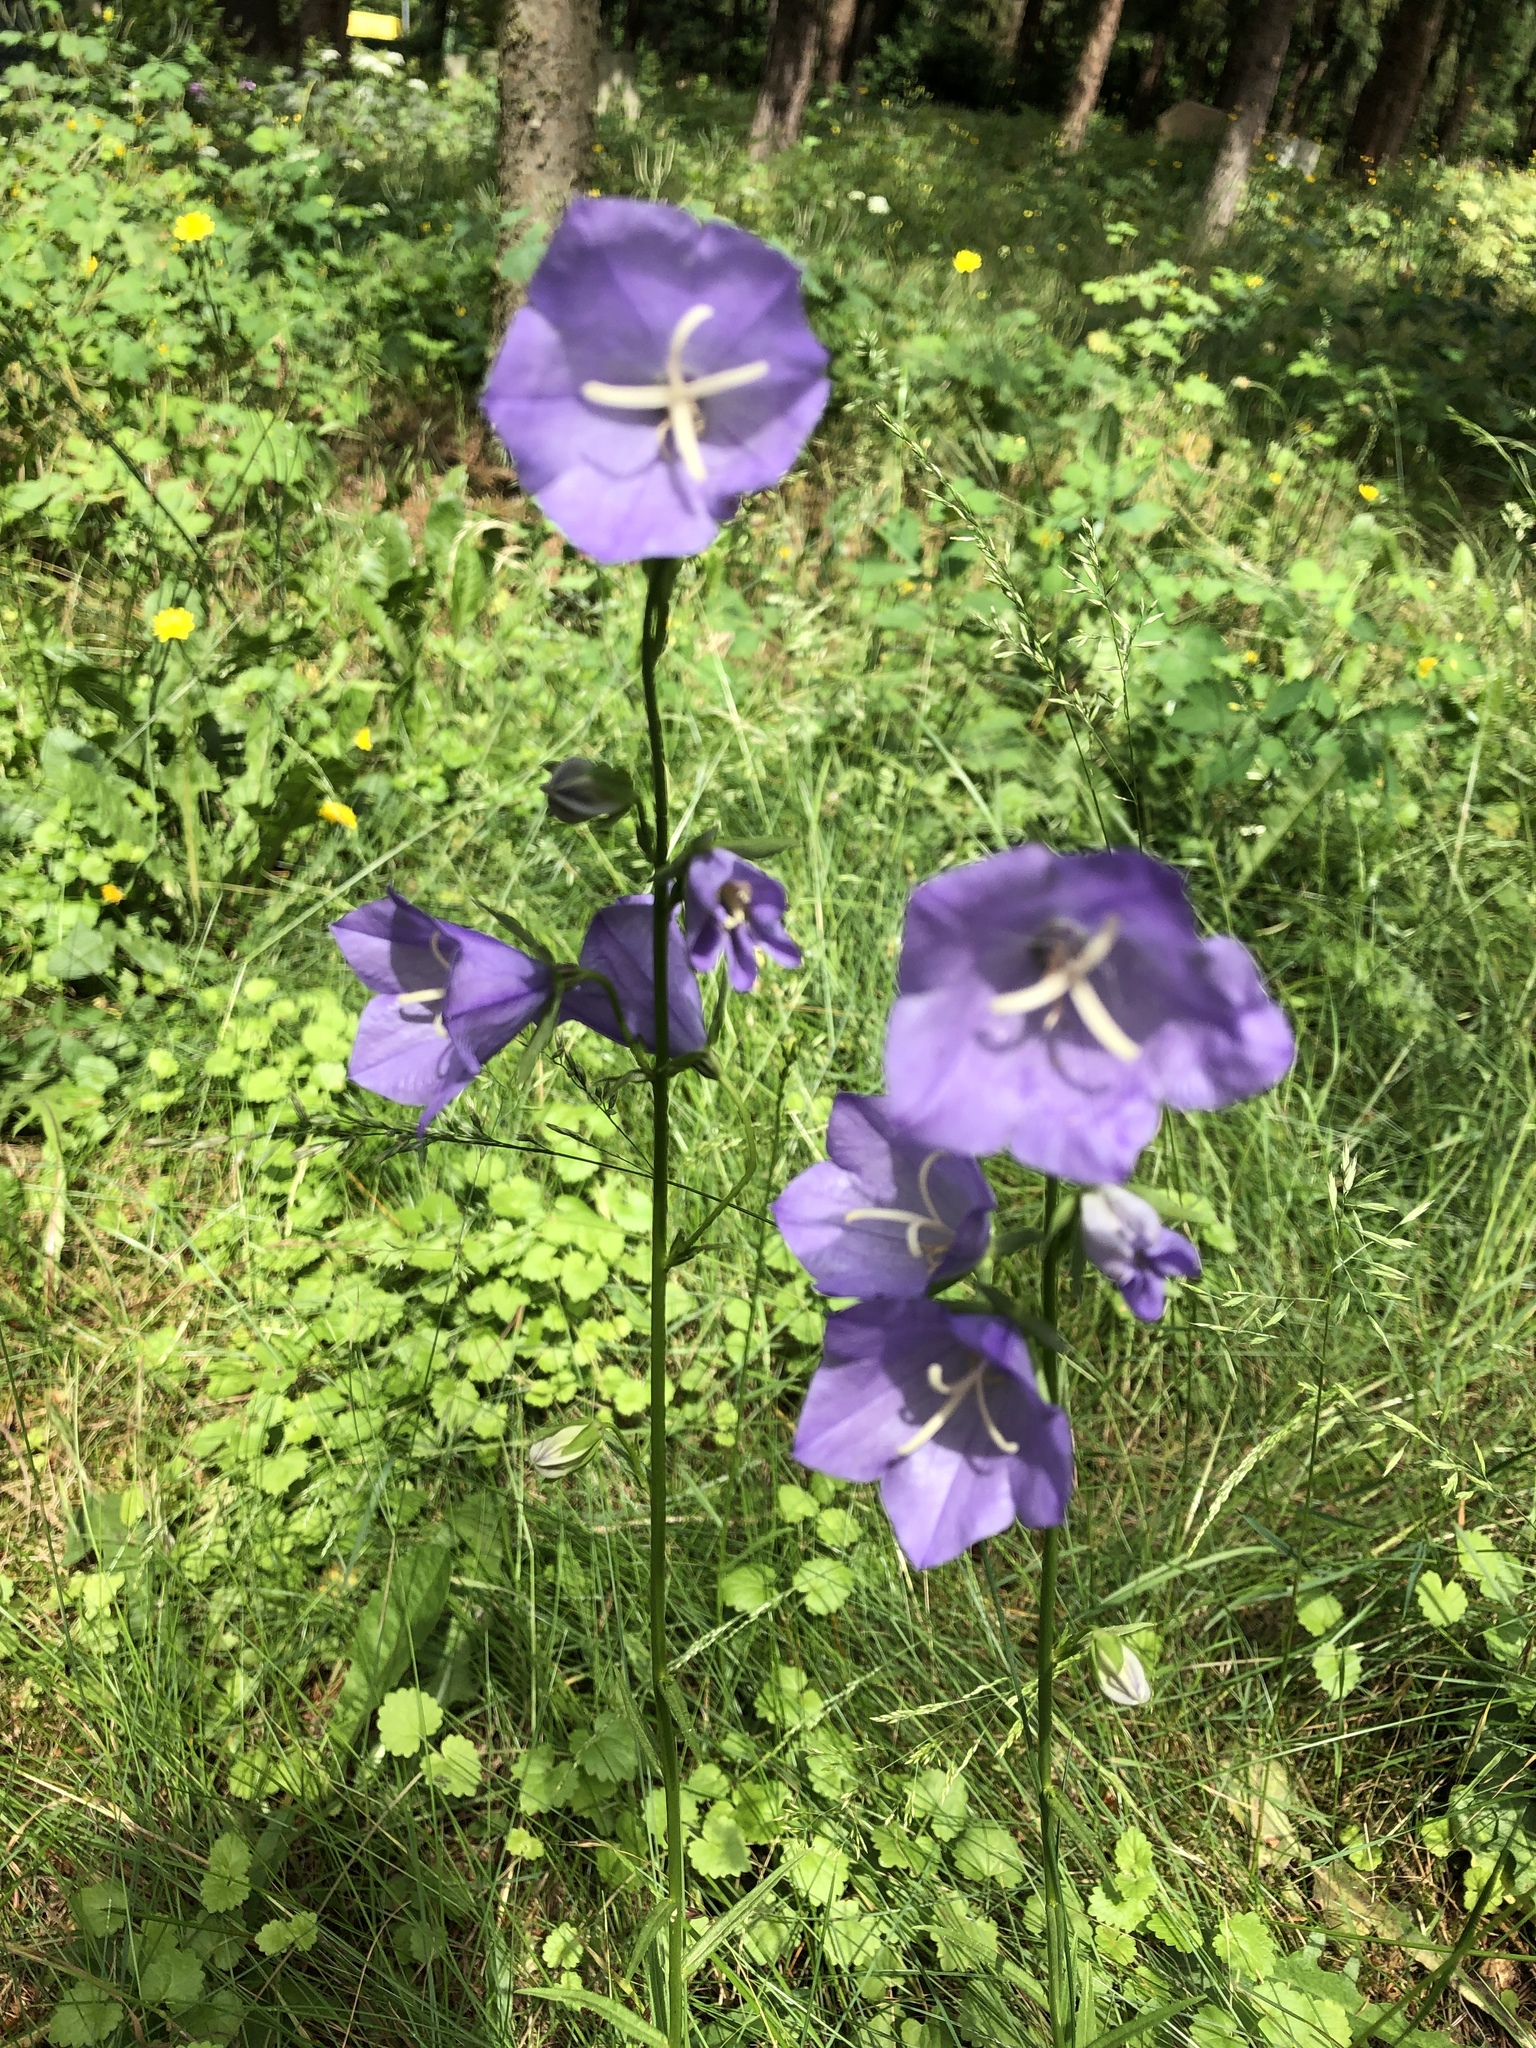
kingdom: Plantae
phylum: Tracheophyta
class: Magnoliopsida
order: Asterales
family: Campanulaceae
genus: Campanula
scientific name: Campanula persicifolia
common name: Peach-leaved bellflower
